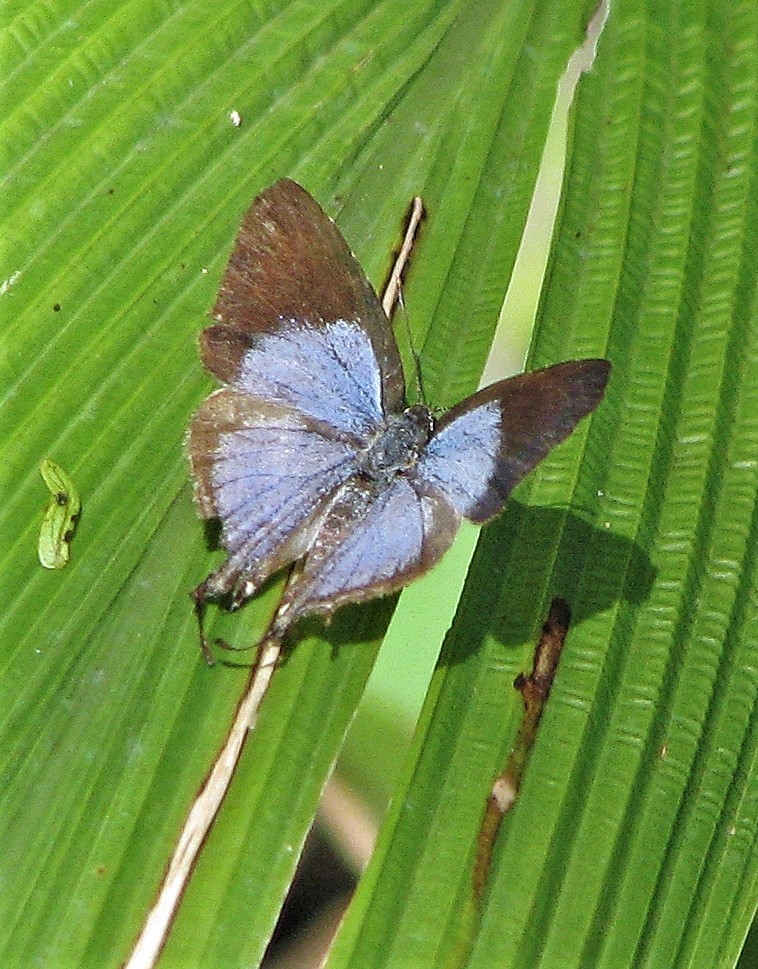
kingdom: Animalia
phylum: Arthropoda
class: Insecta
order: Lepidoptera
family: Lycaenidae
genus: Arawacus
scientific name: Arawacus melibaeus
